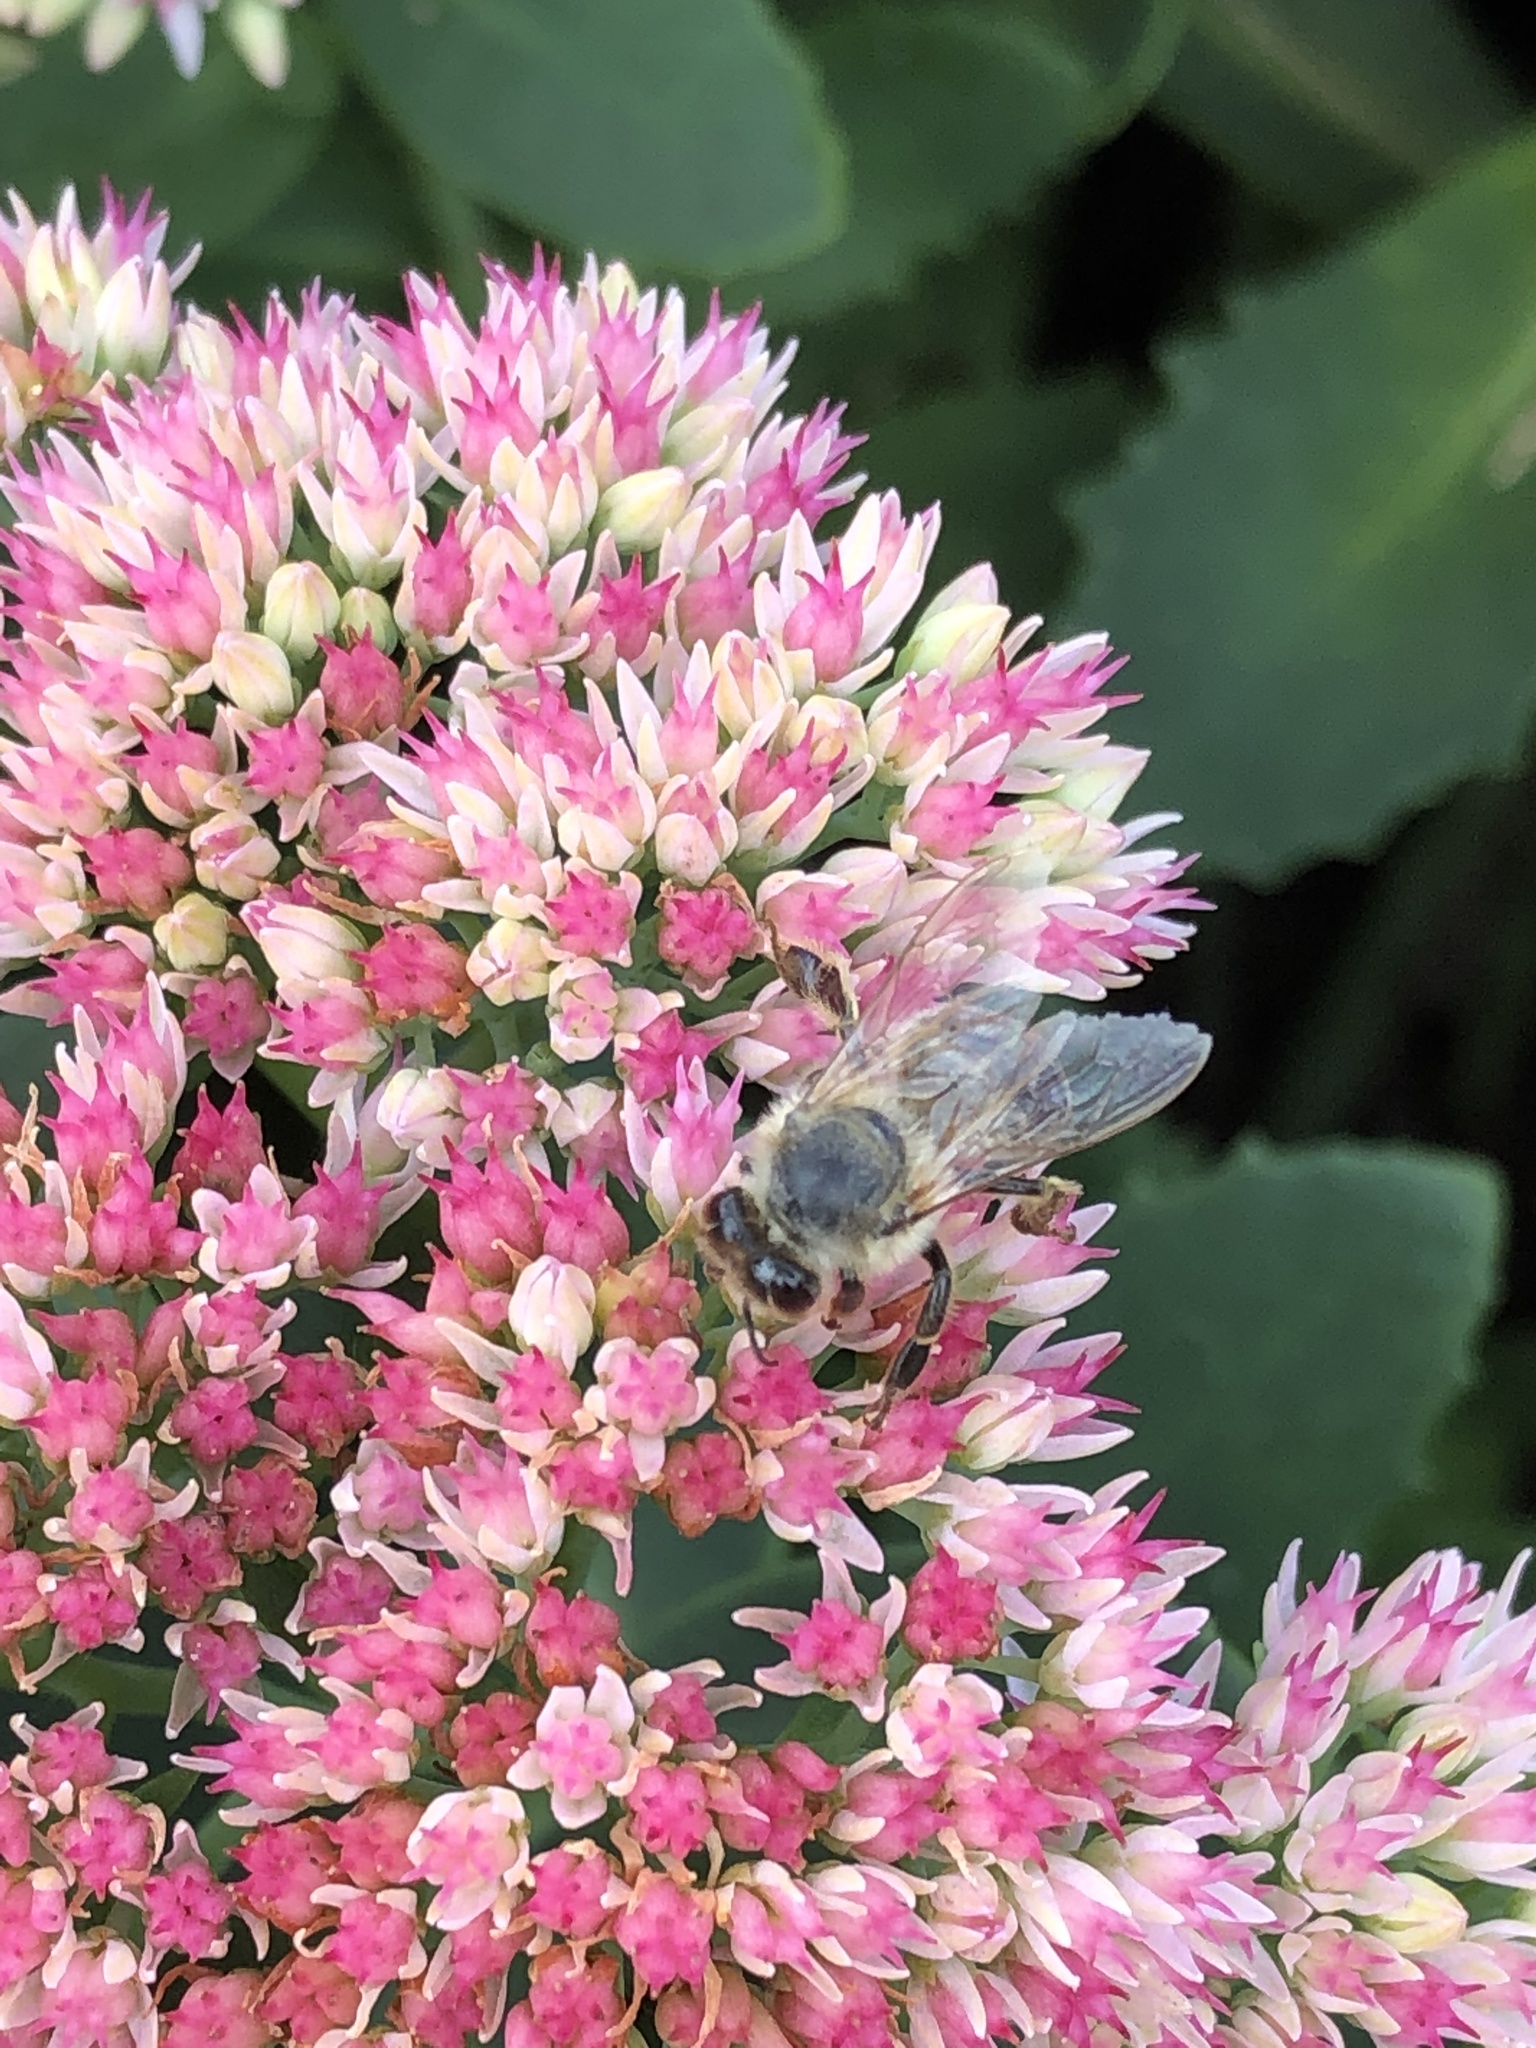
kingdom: Animalia
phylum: Arthropoda
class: Insecta
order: Hymenoptera
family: Apidae
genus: Apis
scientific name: Apis mellifera
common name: Honey bee
